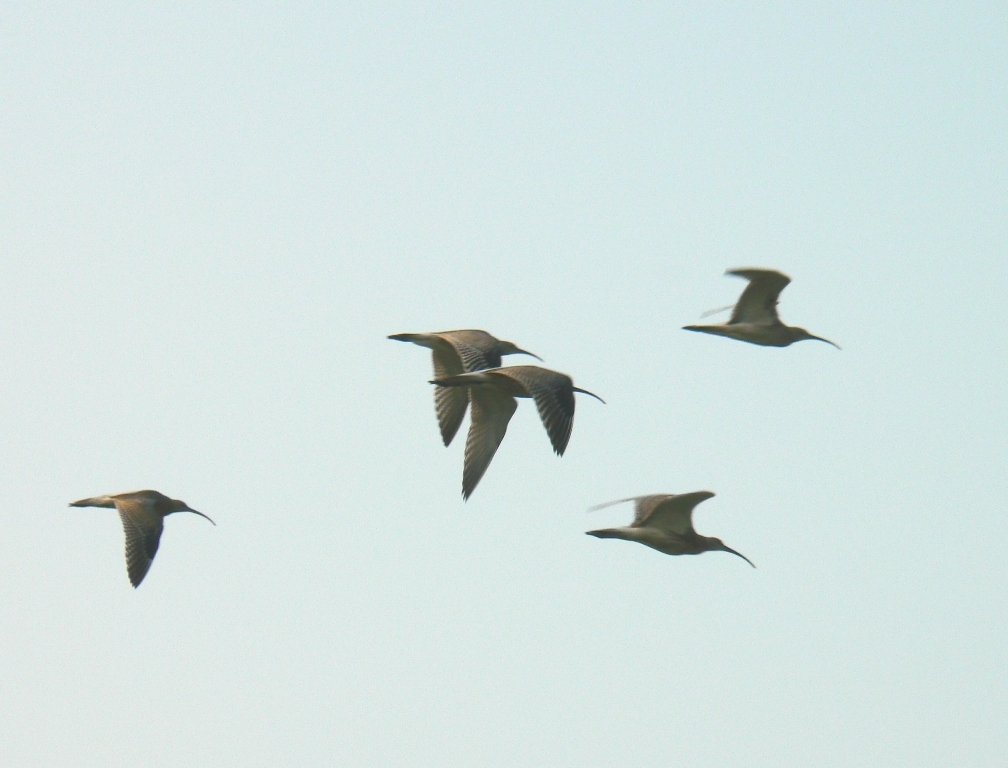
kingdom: Animalia
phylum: Chordata
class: Aves
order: Charadriiformes
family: Scolopacidae
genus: Numenius
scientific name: Numenius arquata
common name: Eurasian curlew
